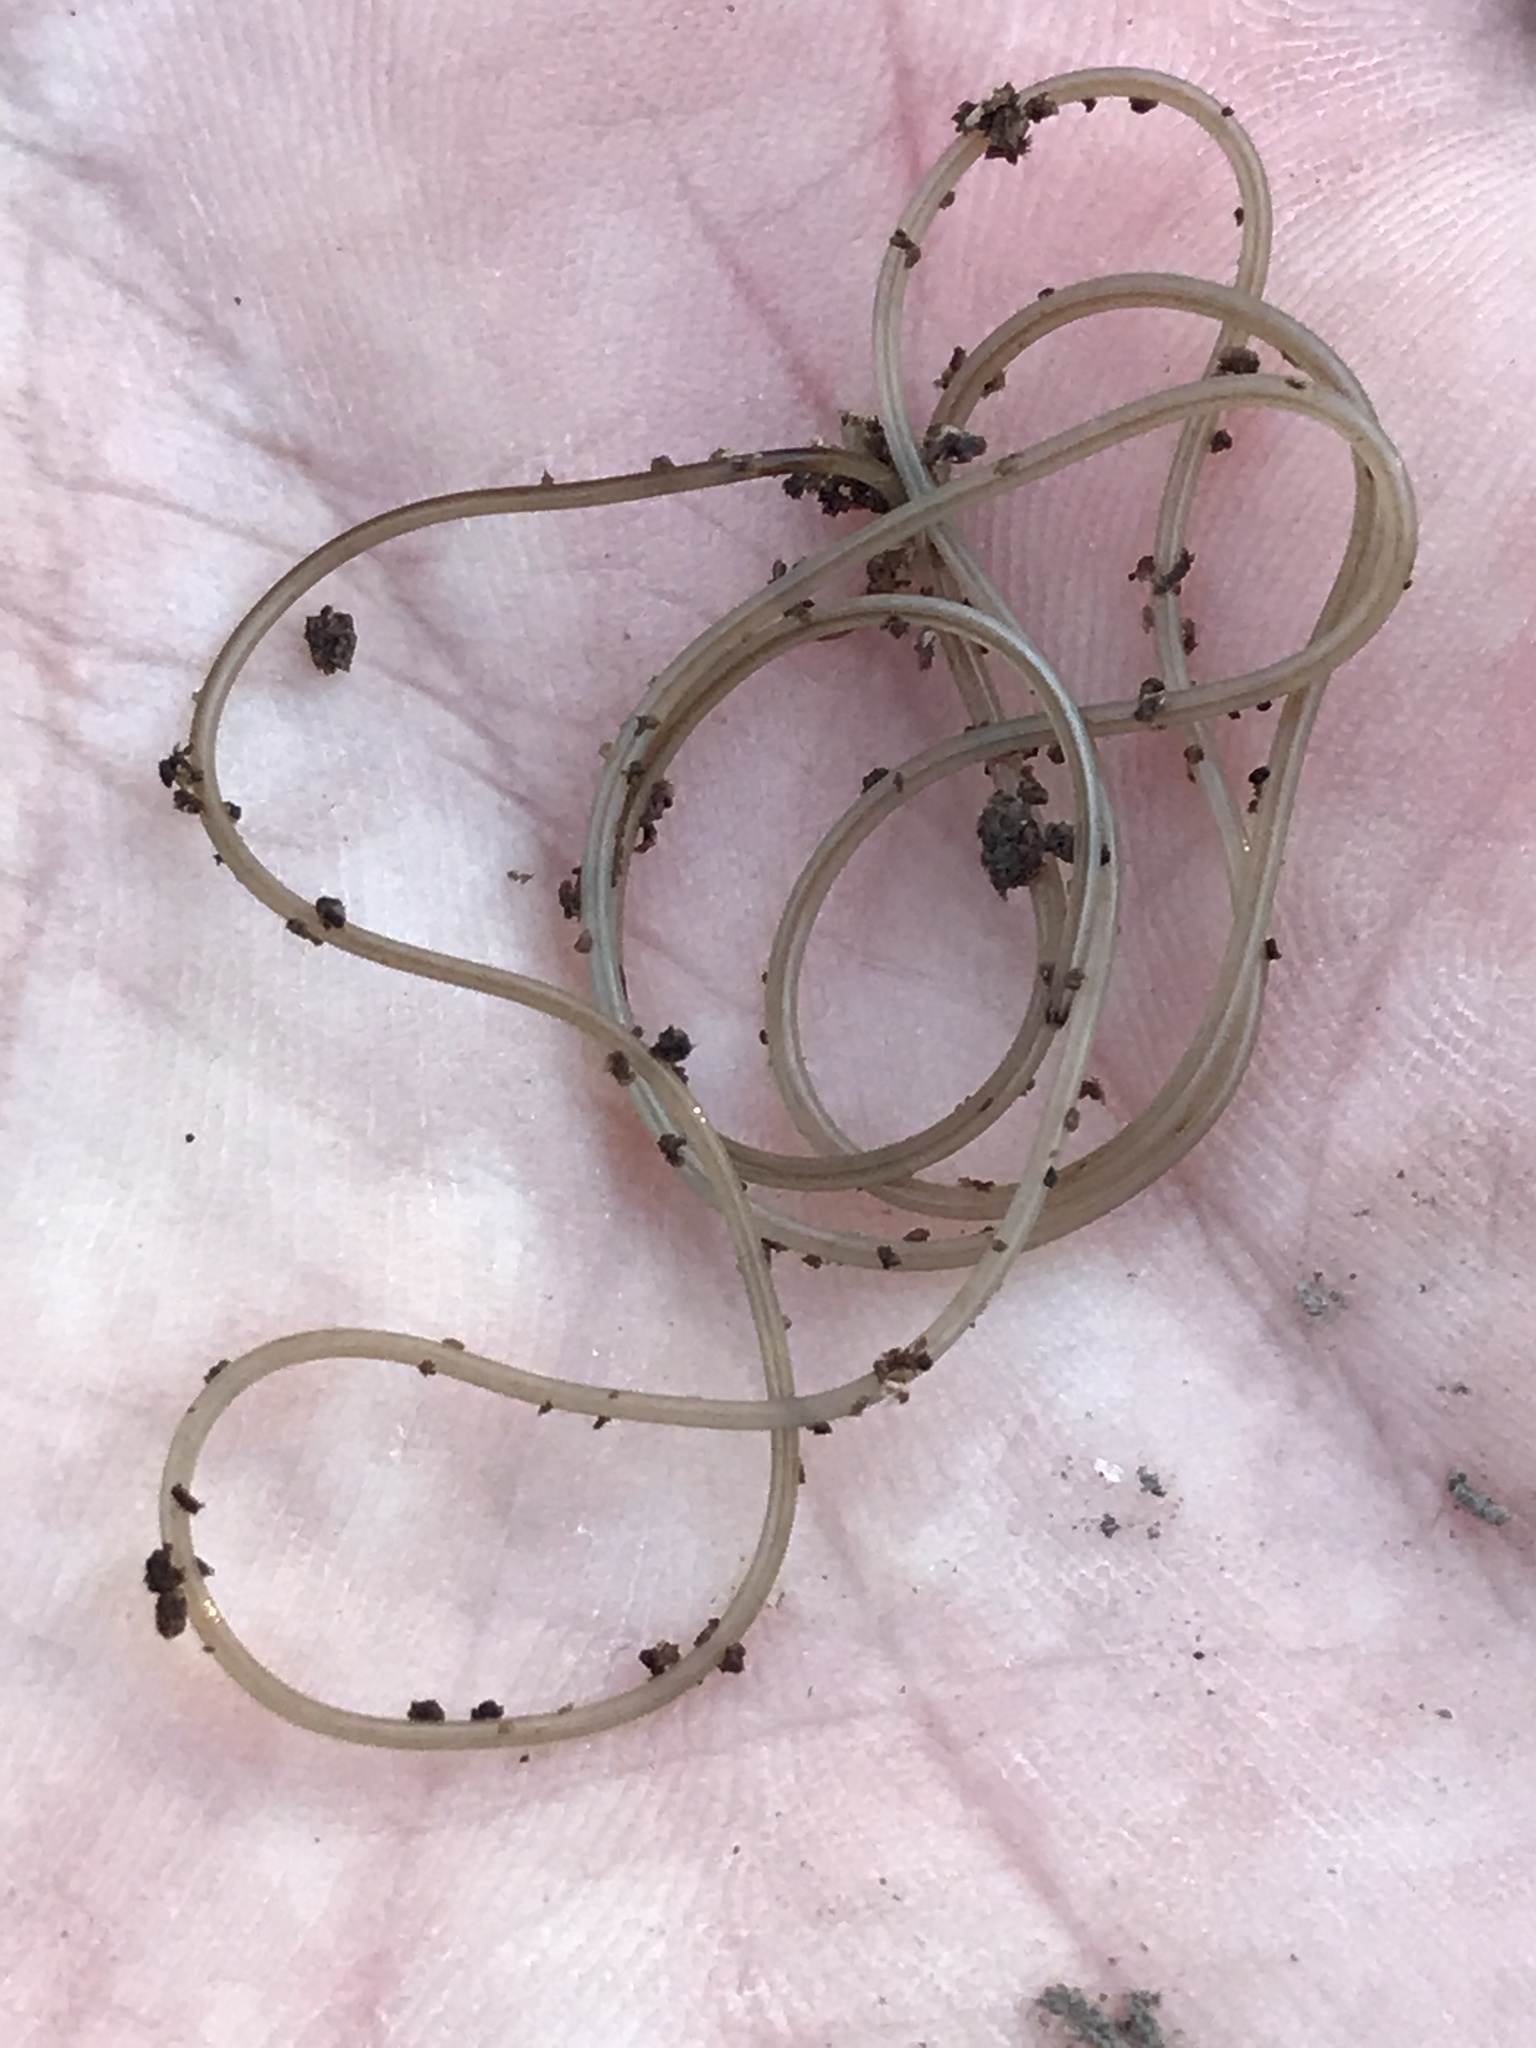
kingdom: Animalia
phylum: Nematomorpha
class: Gordioida
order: Gordioidea
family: Gordiidae
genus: Gordius
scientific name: Gordius robustus
